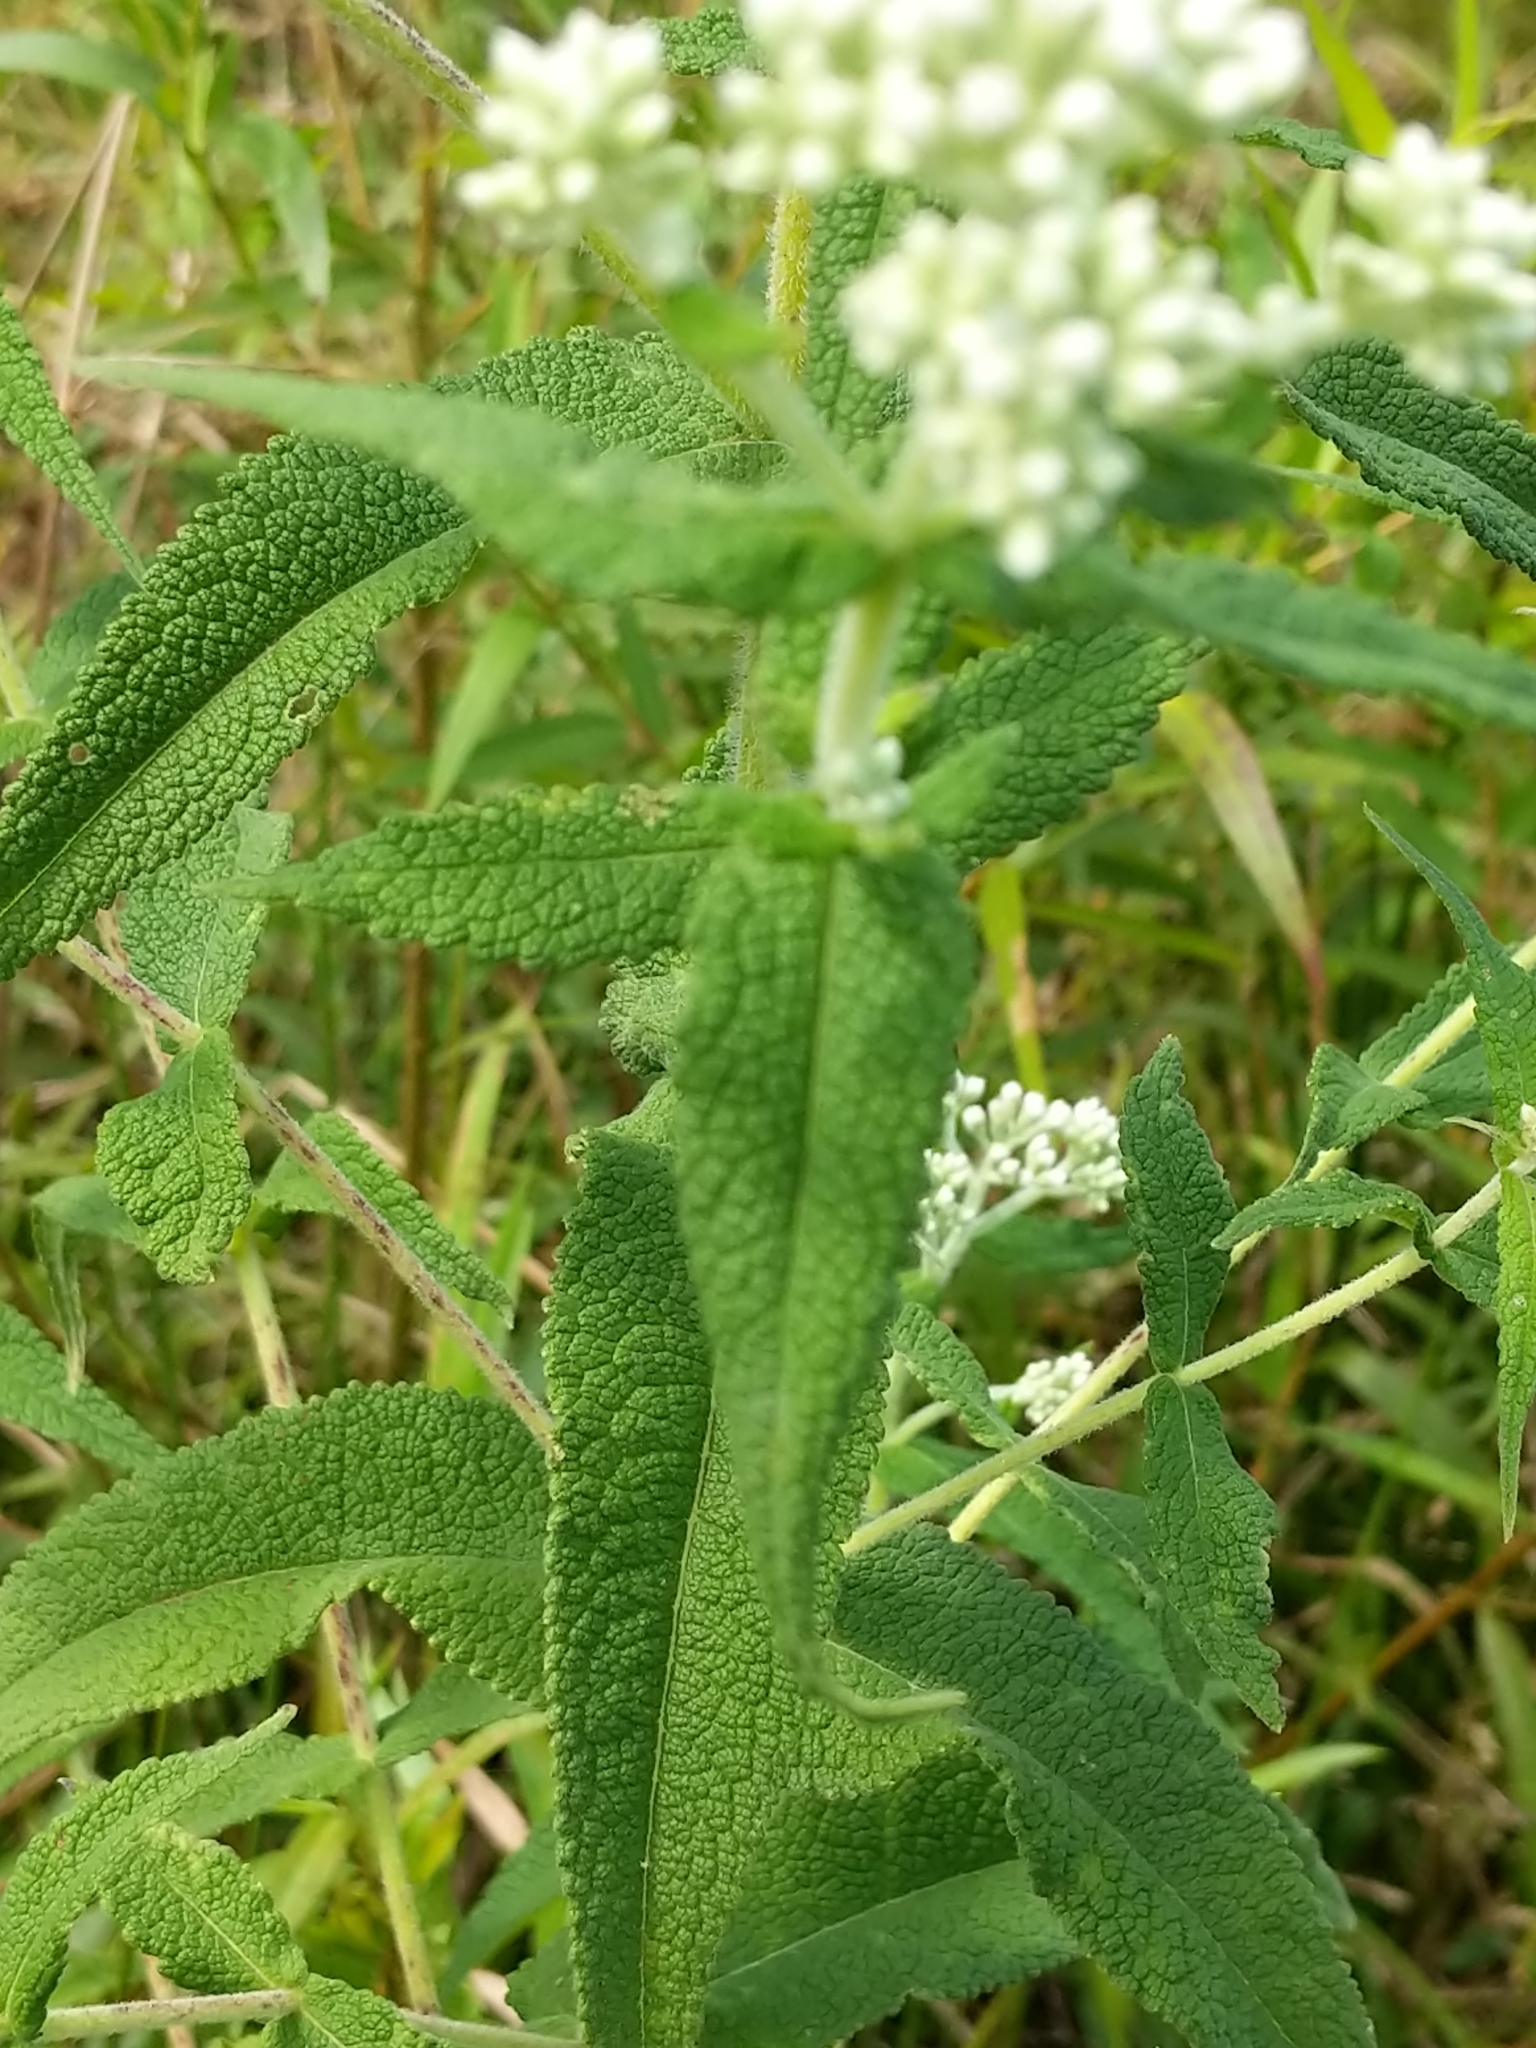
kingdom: Plantae
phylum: Tracheophyta
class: Magnoliopsida
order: Asterales
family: Asteraceae
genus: Eupatorium
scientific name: Eupatorium perfoliatum
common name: Boneset
